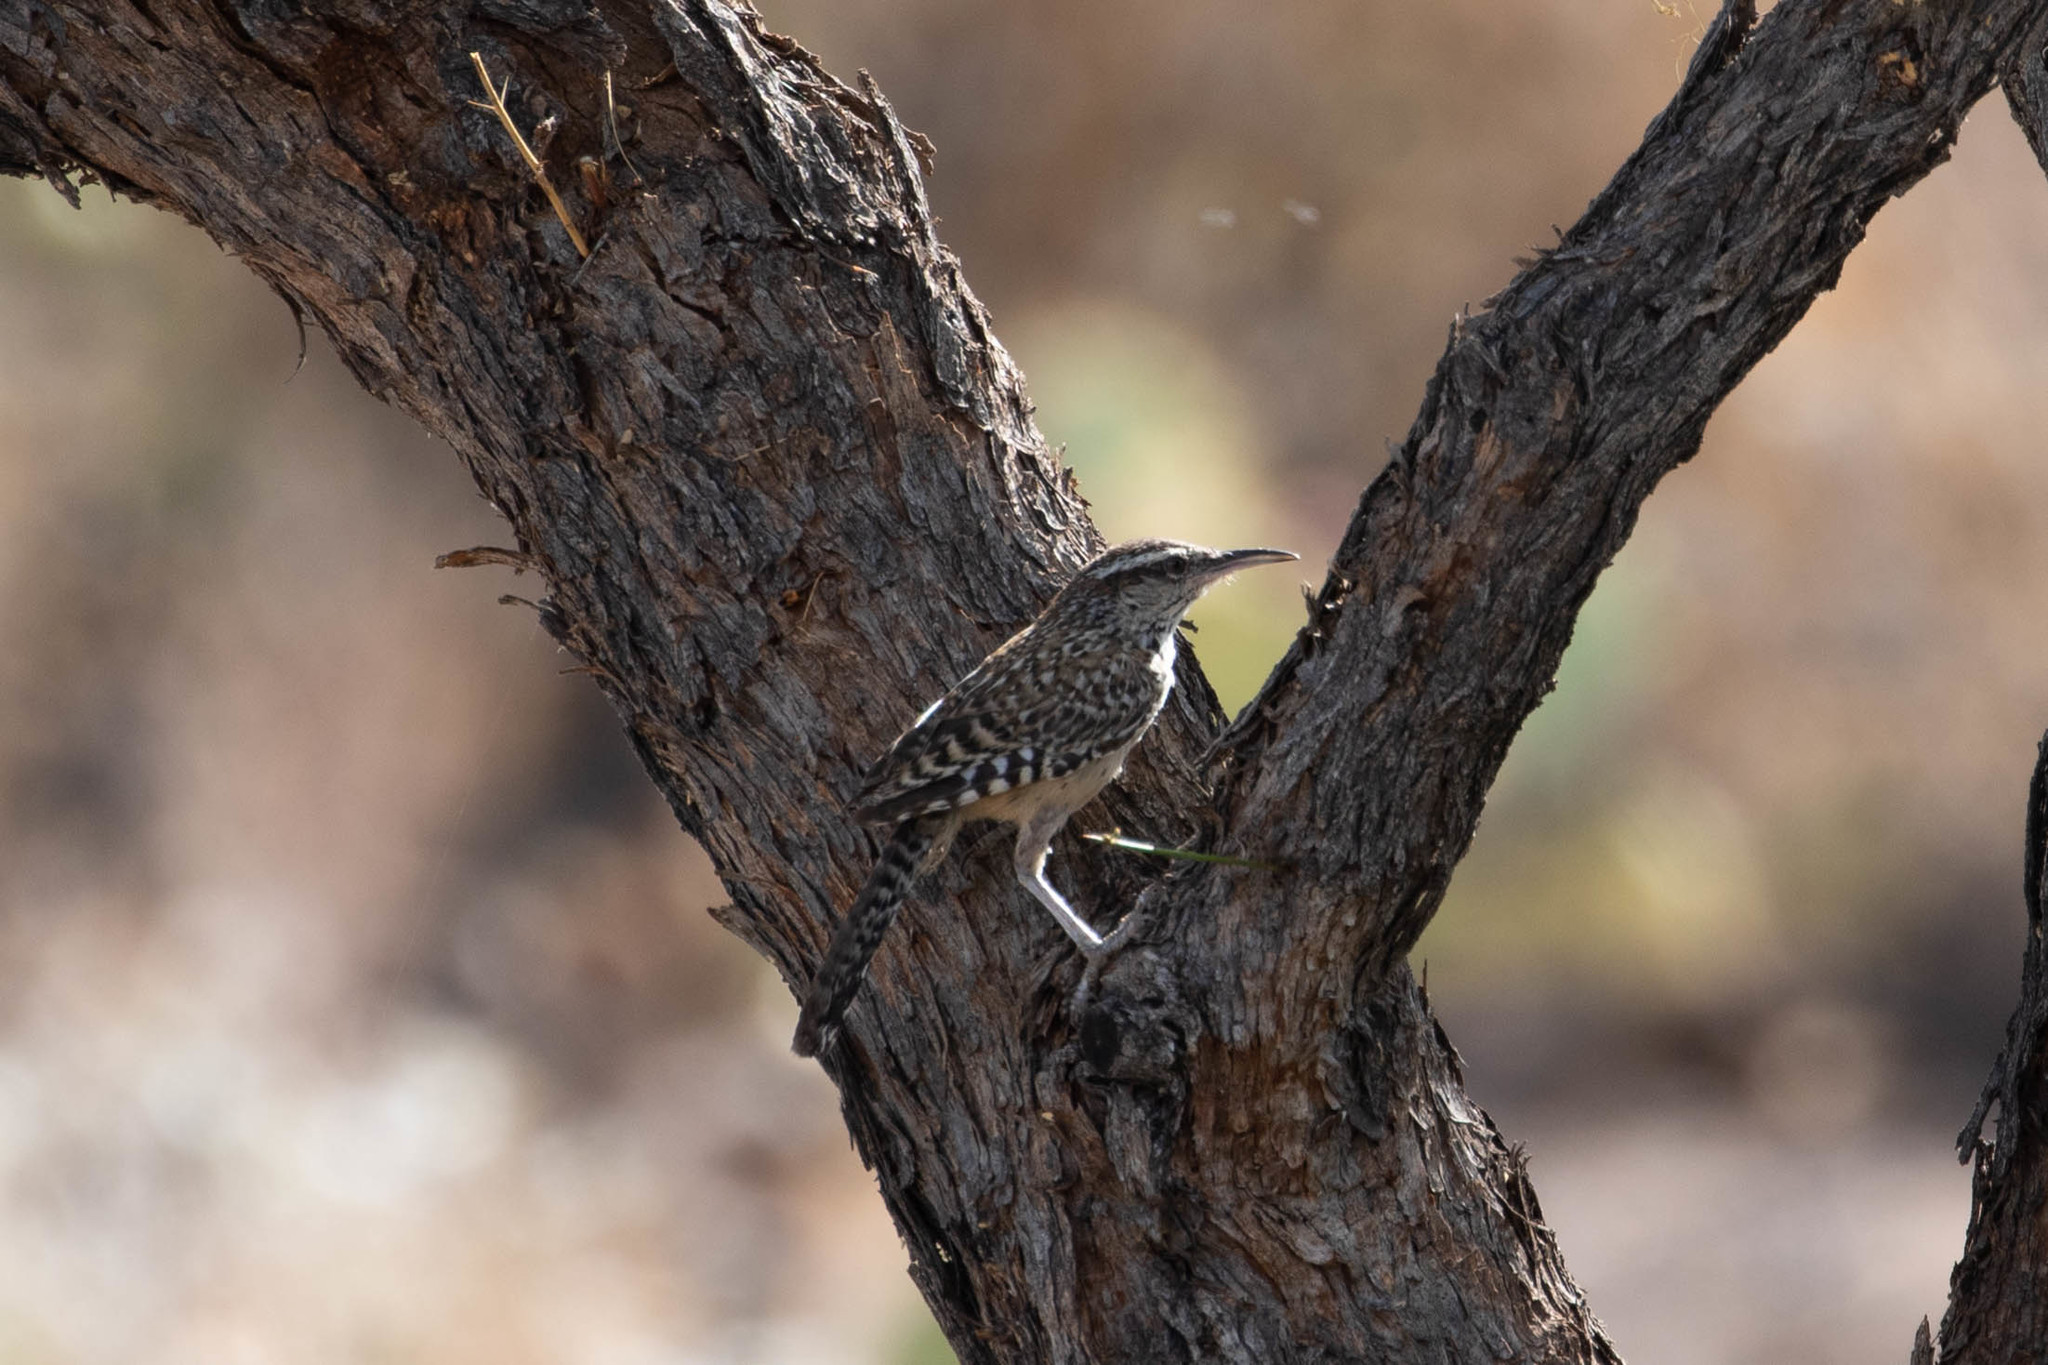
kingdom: Animalia
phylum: Chordata
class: Aves
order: Passeriformes
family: Troglodytidae
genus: Campylorhynchus
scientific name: Campylorhynchus brunneicapillus
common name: Cactus wren
